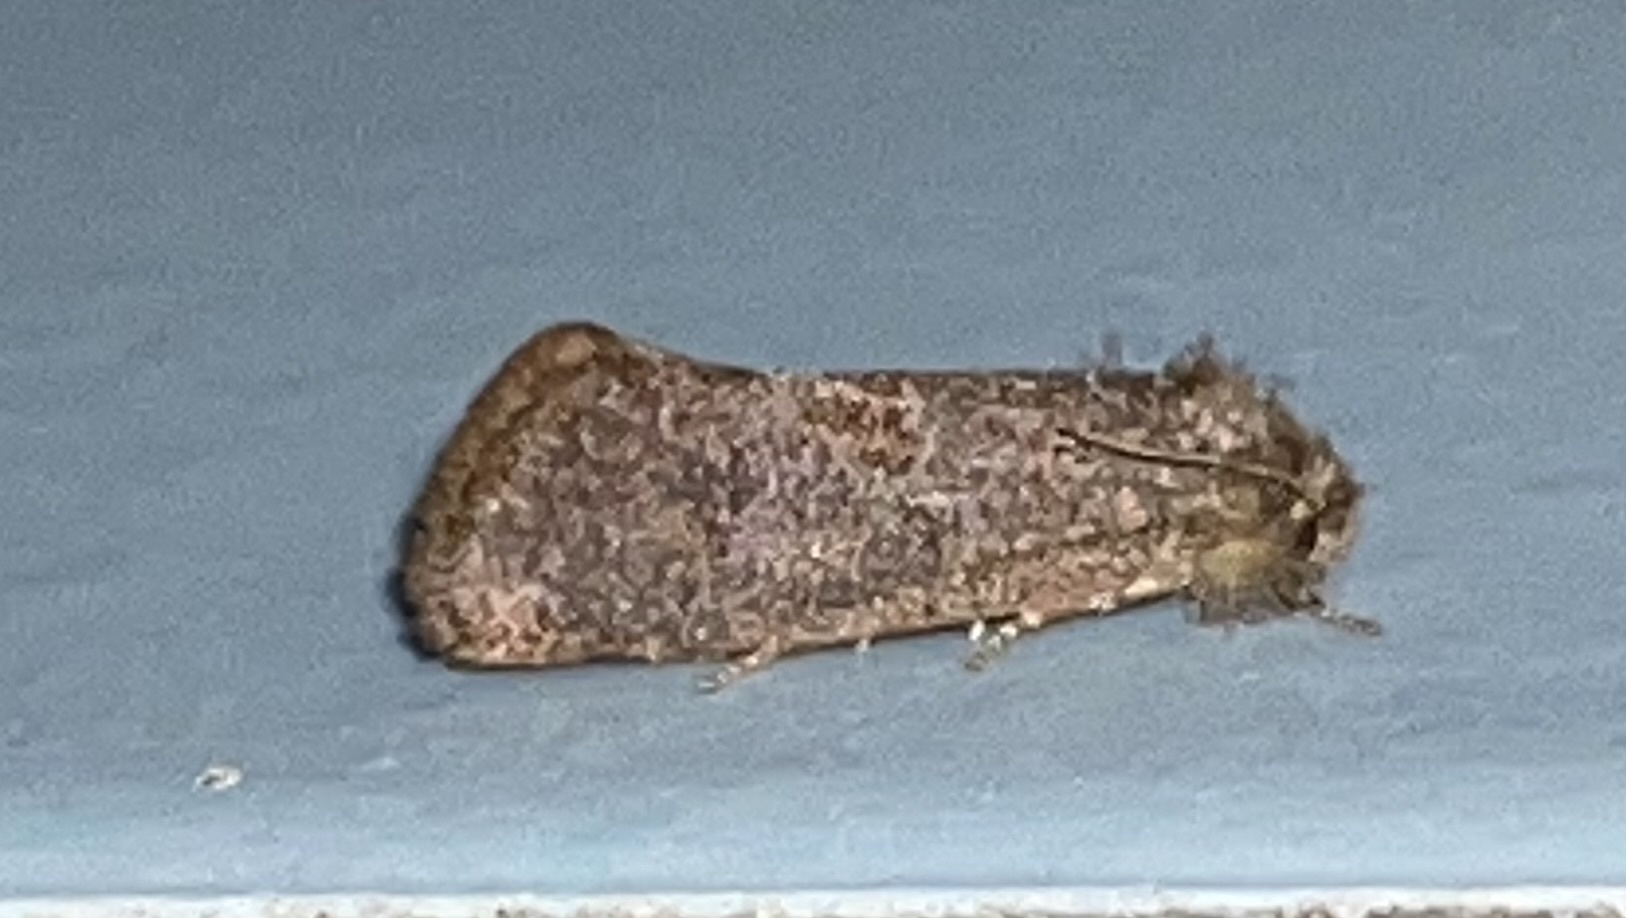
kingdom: Animalia
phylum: Arthropoda
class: Insecta
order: Lepidoptera
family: Tineidae
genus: Acrolophus
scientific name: Acrolophus heppneri
